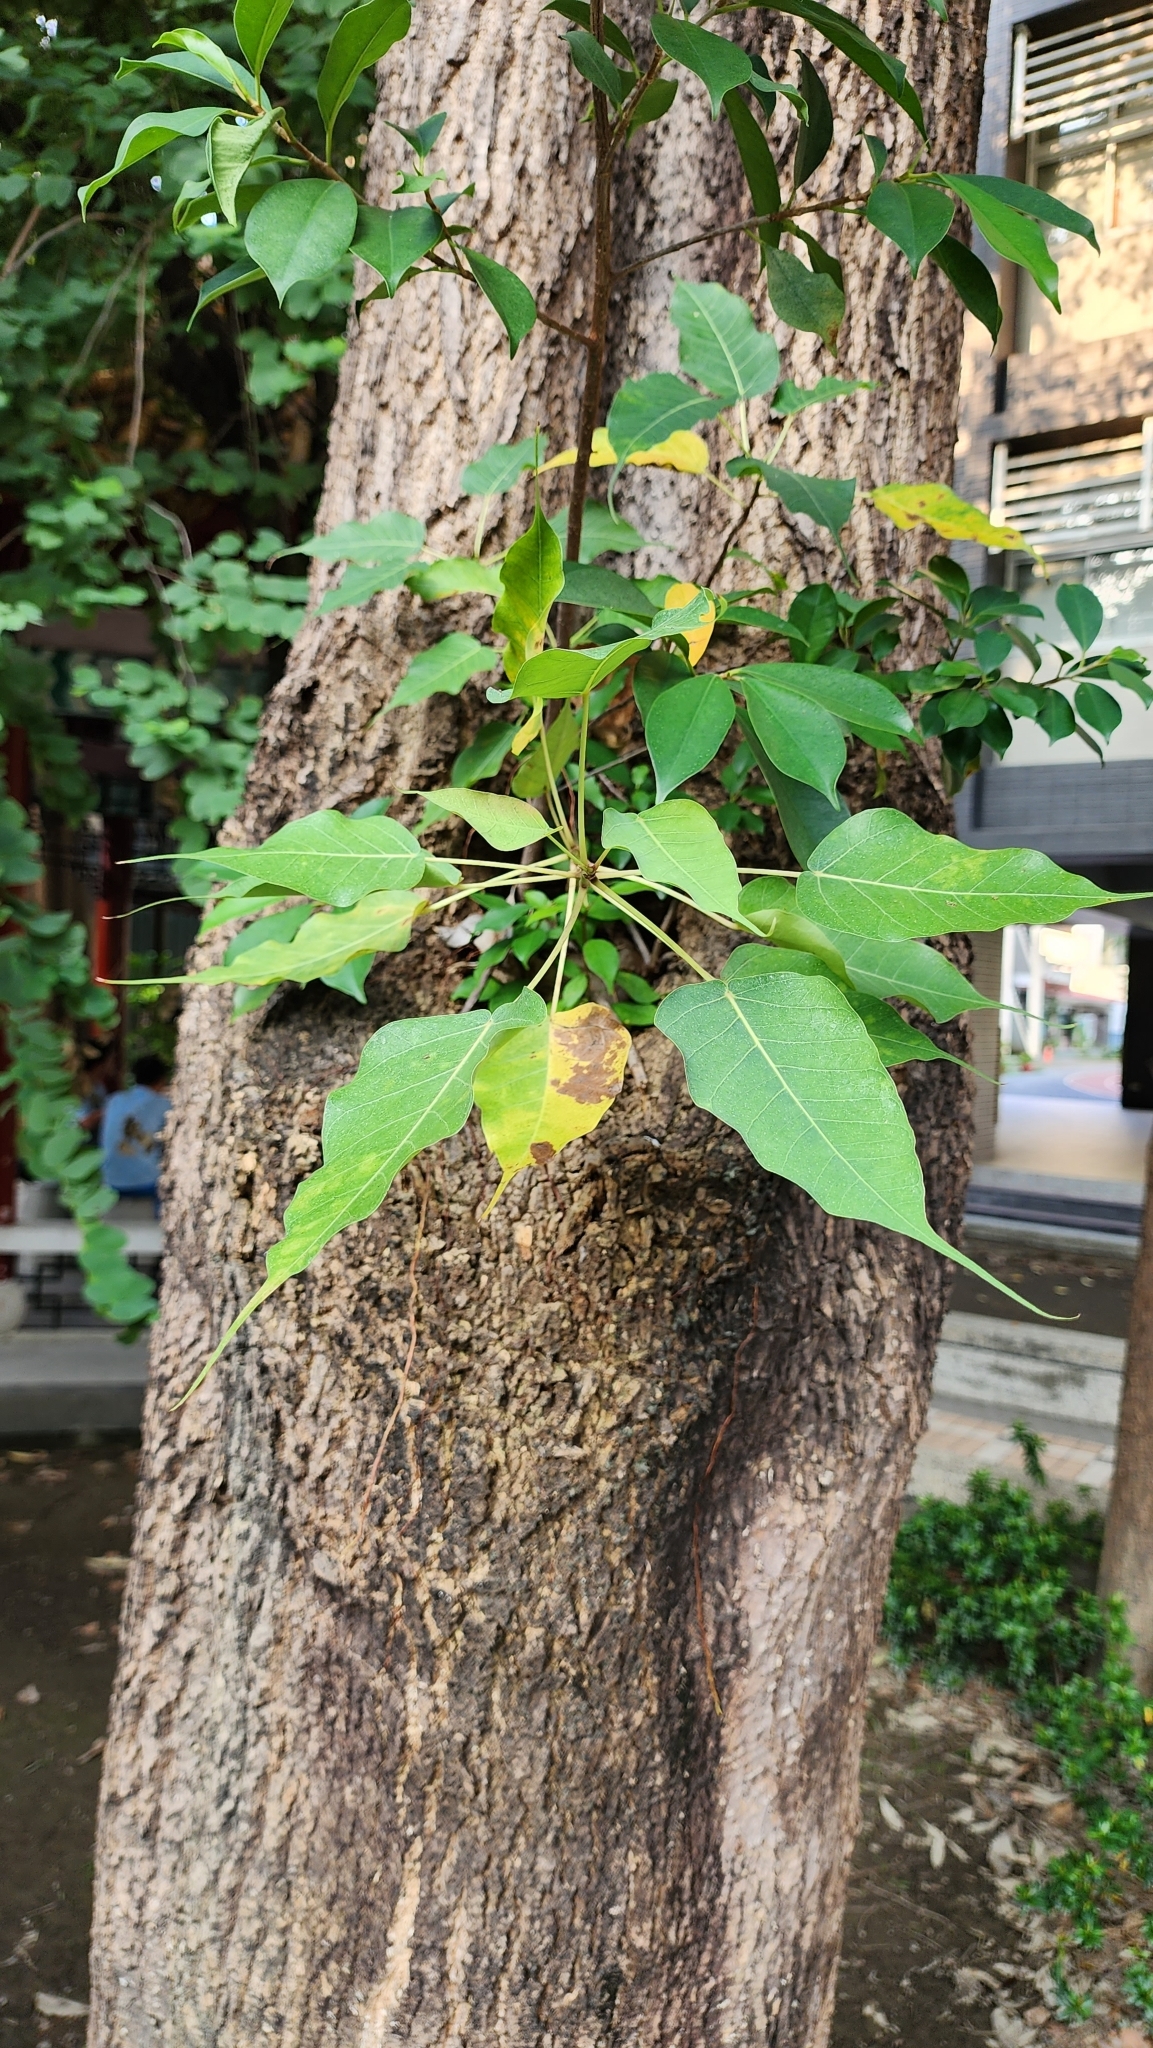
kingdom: Plantae
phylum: Tracheophyta
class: Magnoliopsida
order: Rosales
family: Moraceae
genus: Ficus
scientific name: Ficus religiosa
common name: Bodhi tree
